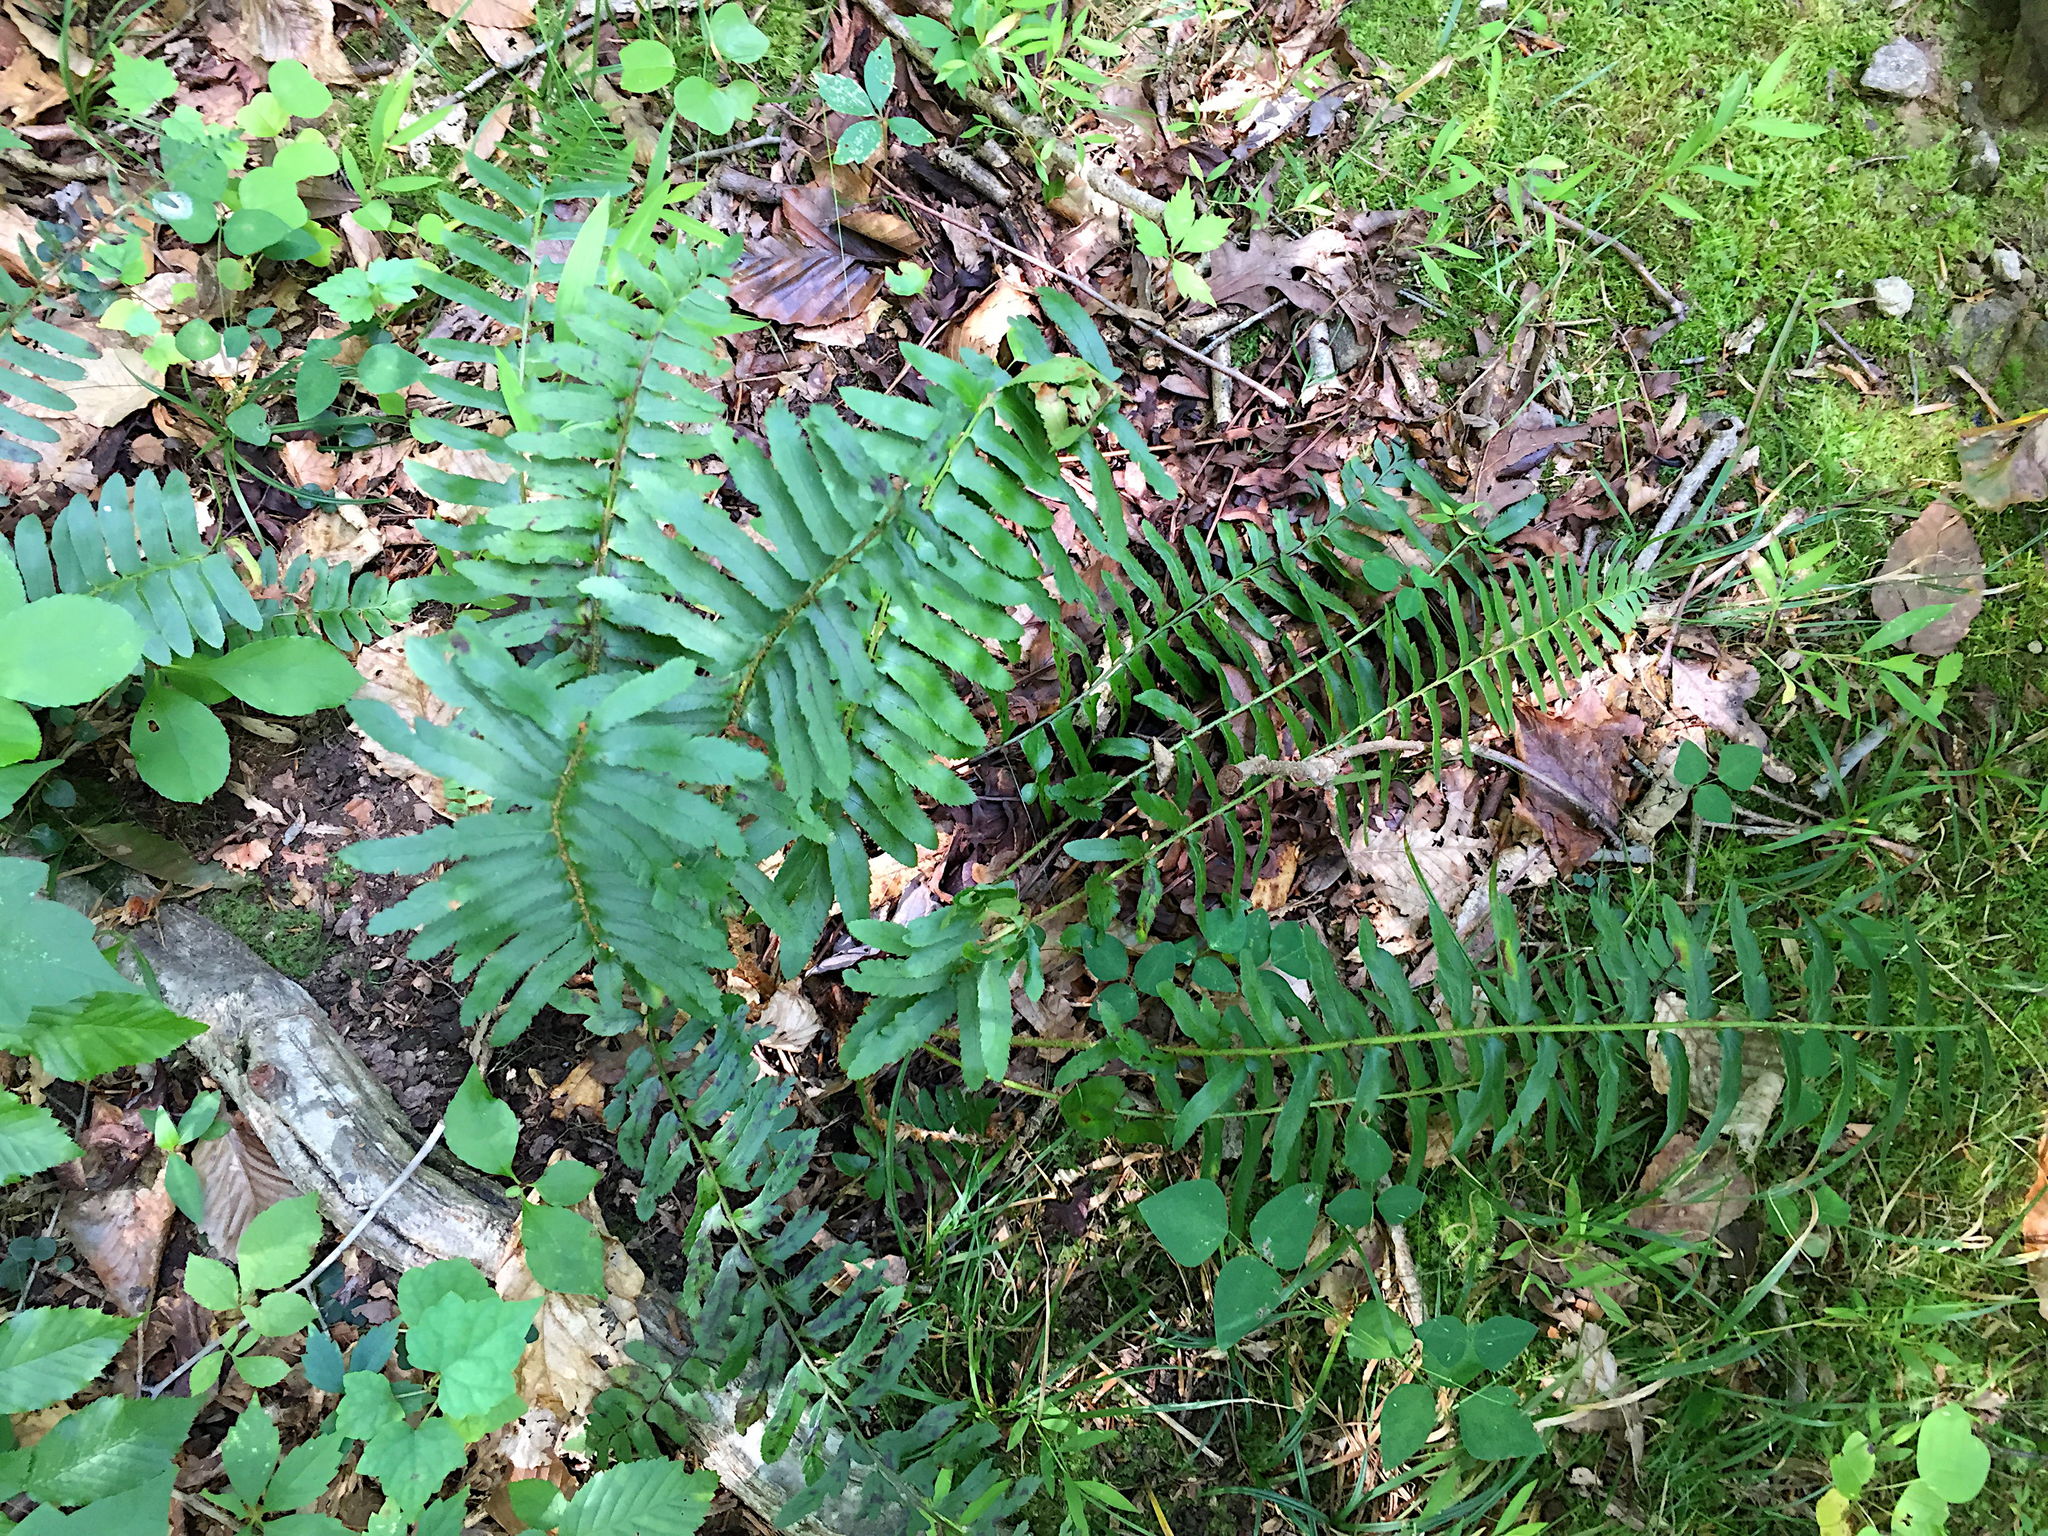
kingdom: Plantae
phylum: Tracheophyta
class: Polypodiopsida
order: Polypodiales
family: Dryopteridaceae
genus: Polystichum
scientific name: Polystichum acrostichoides
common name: Christmas fern
